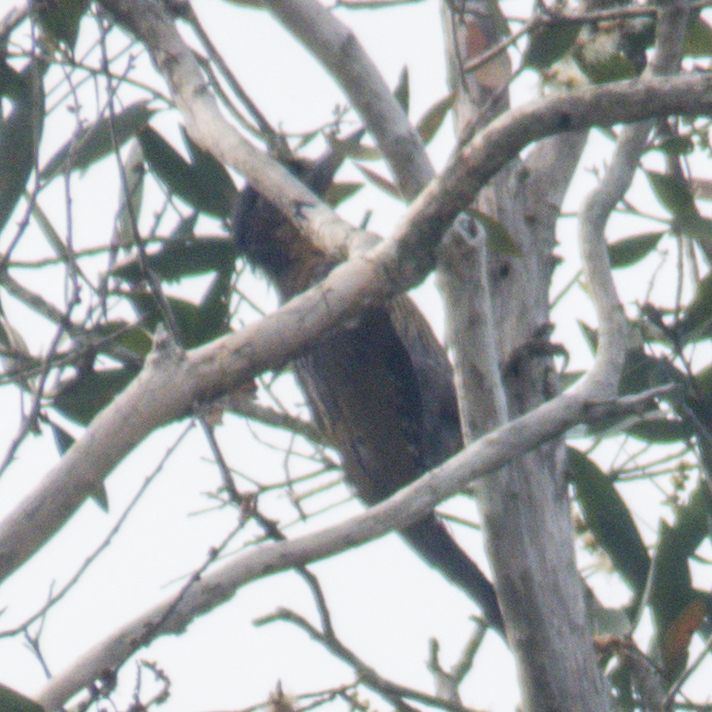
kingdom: Animalia
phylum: Chordata
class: Aves
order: Piciformes
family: Picidae
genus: Picus
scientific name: Picus vittatus
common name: Laced woodpecker
